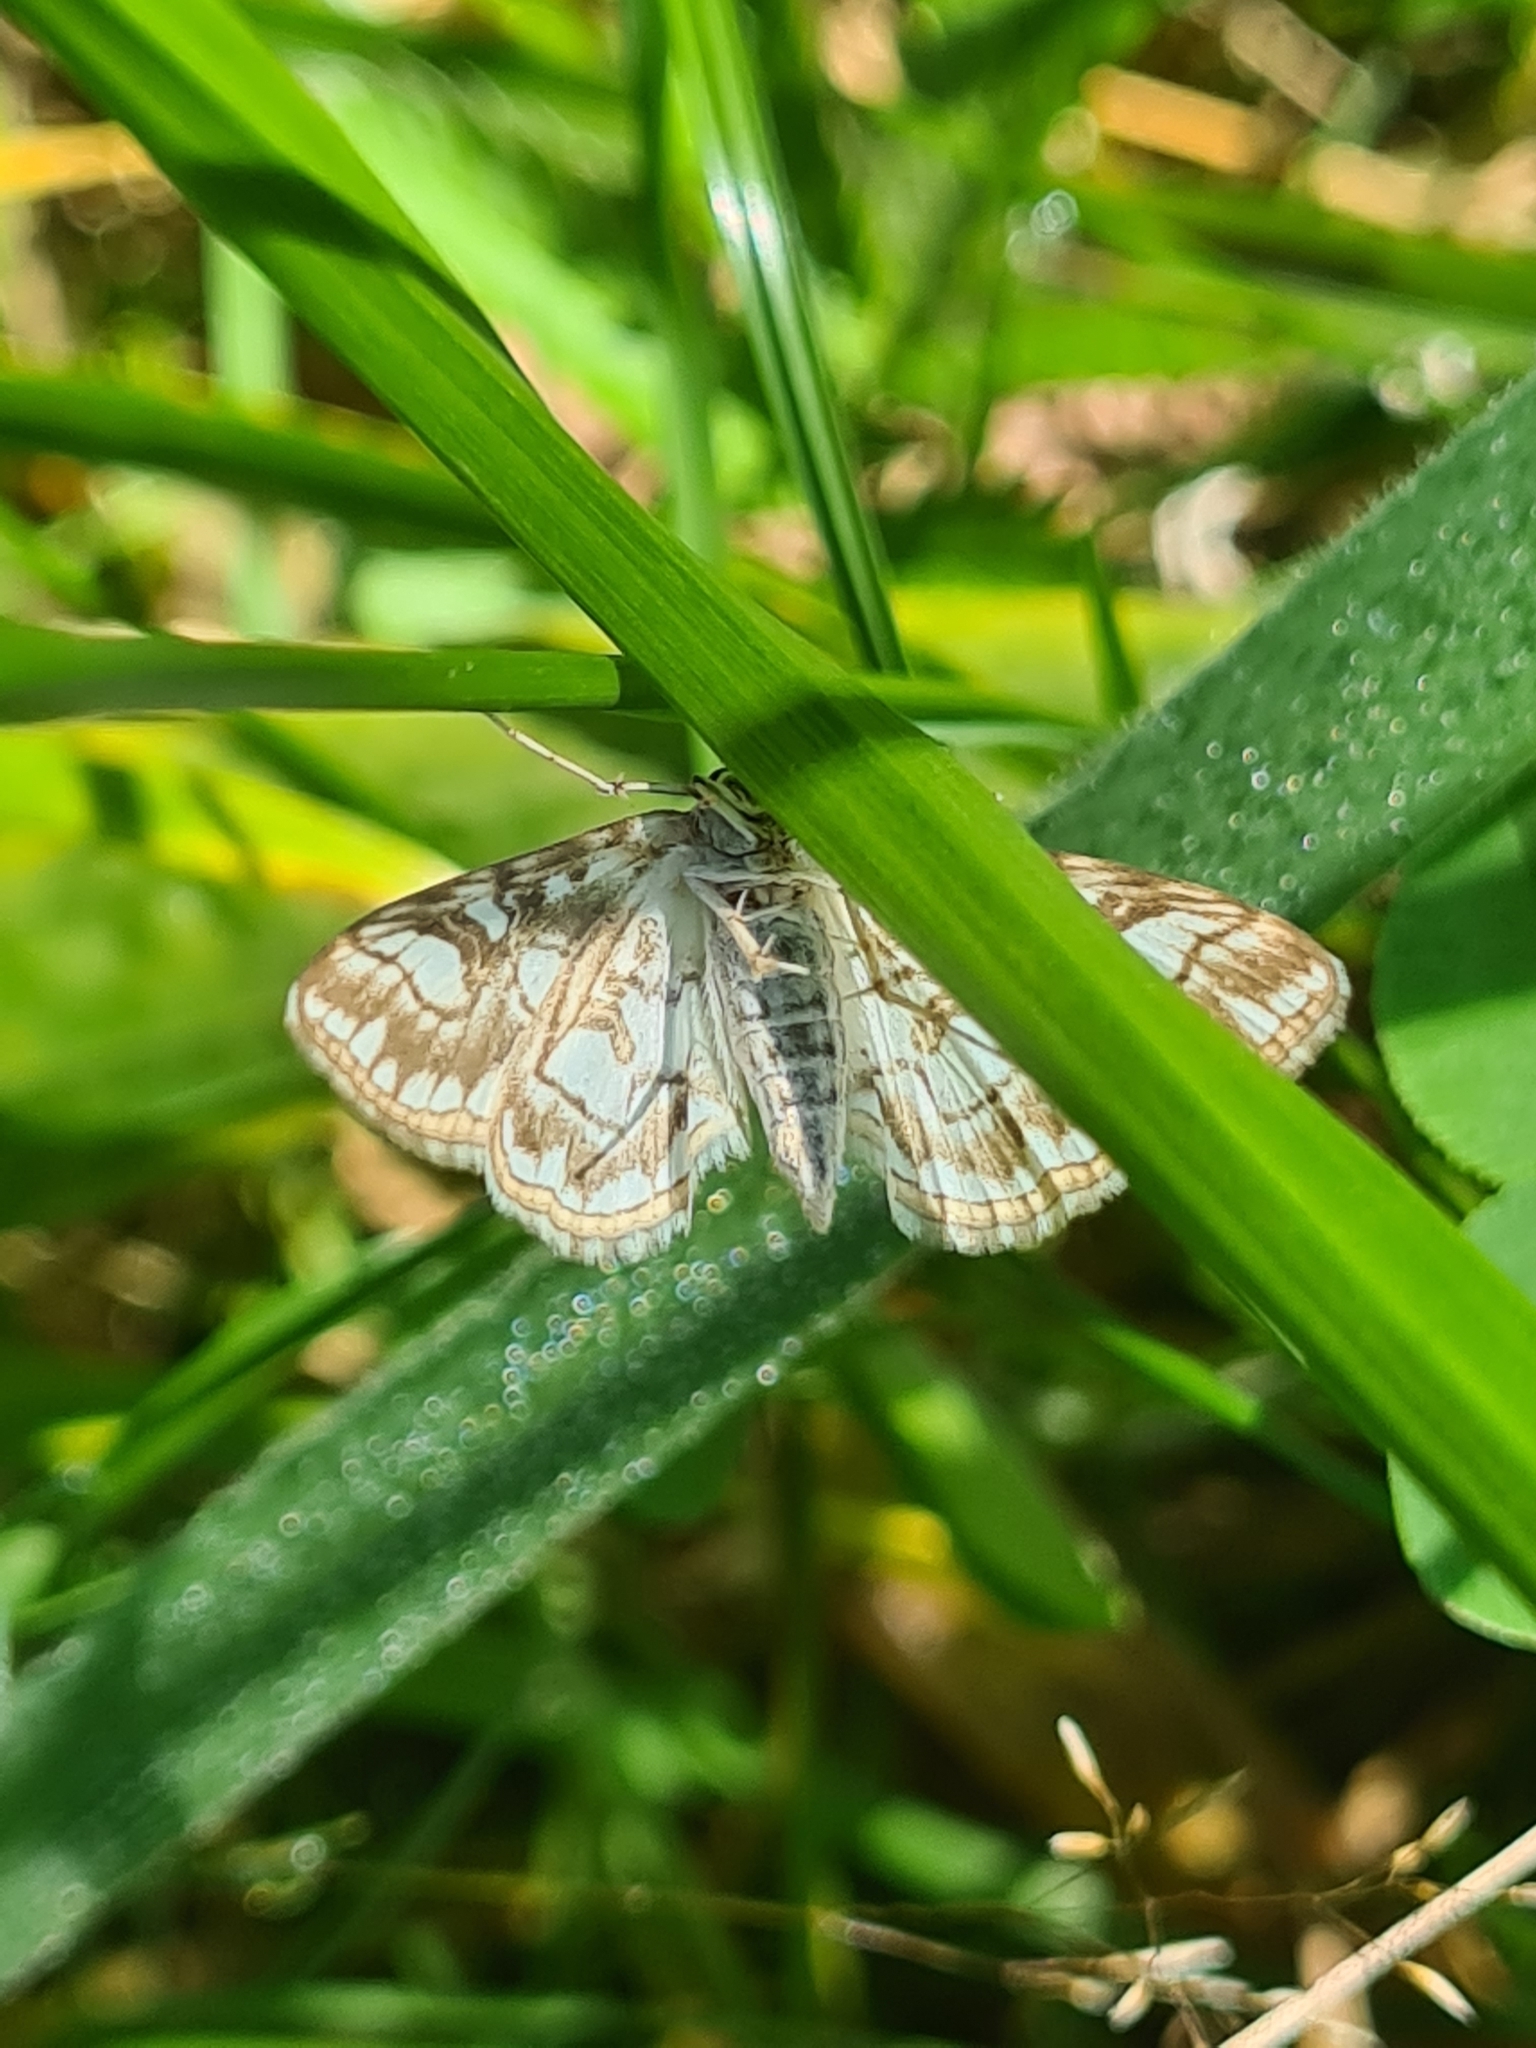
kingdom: Animalia
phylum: Arthropoda
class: Insecta
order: Lepidoptera
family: Crambidae
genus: Elophila
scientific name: Elophila nymphaeata
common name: Brown china-mark
